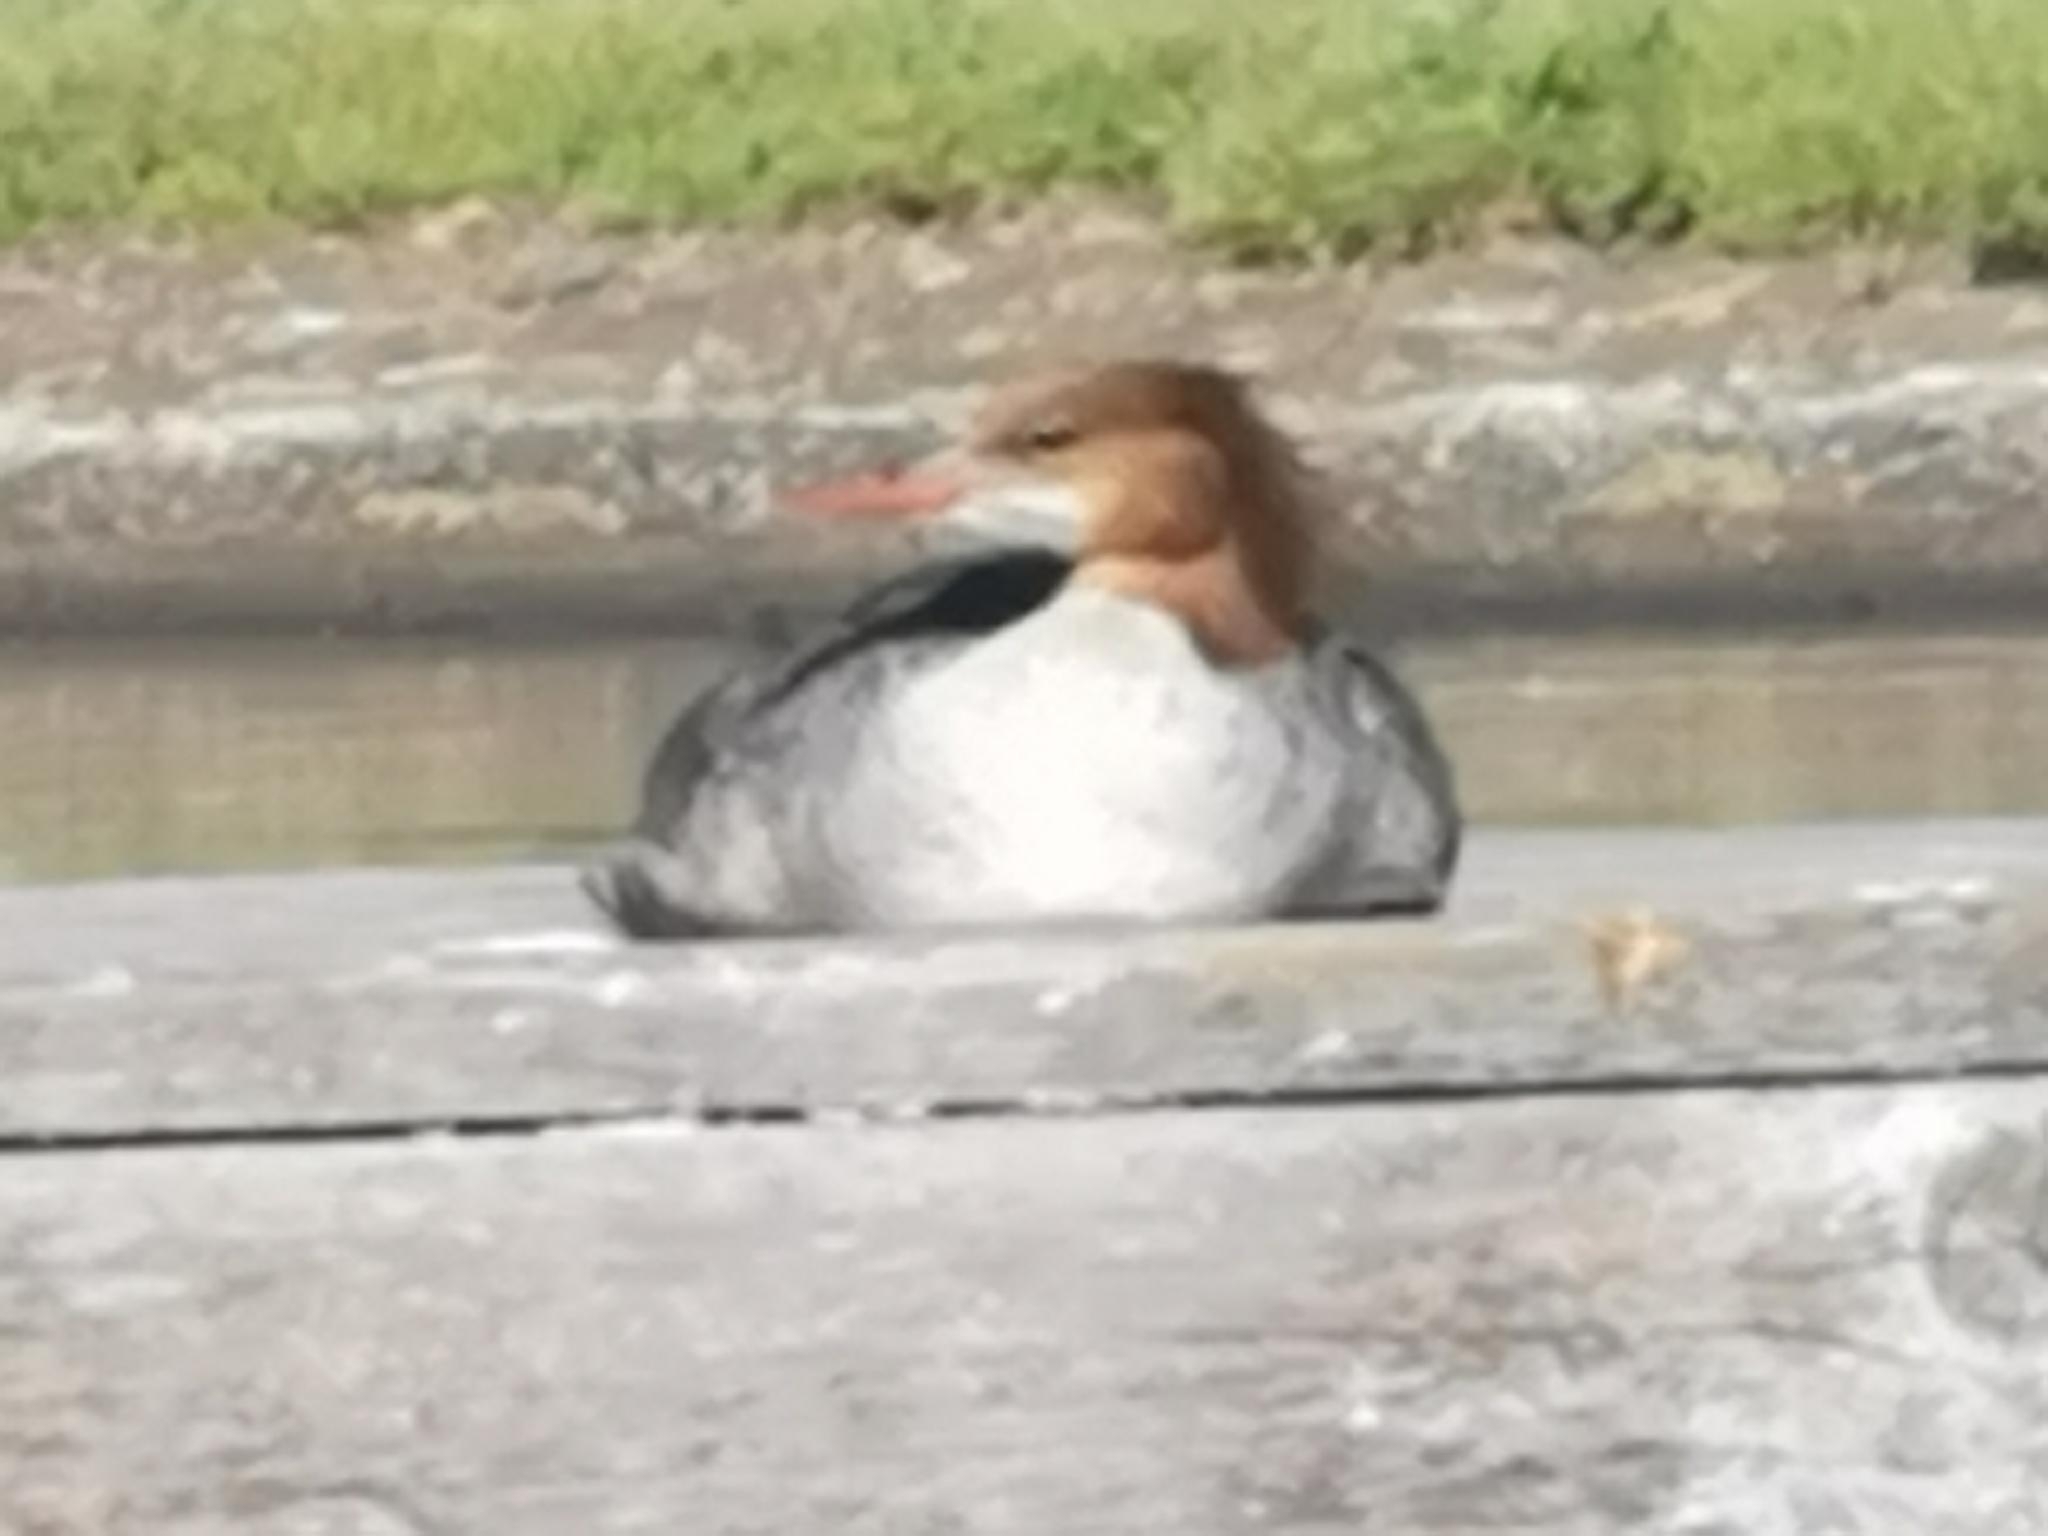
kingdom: Animalia
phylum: Chordata
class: Aves
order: Anseriformes
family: Anatidae
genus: Mergus
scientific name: Mergus merganser
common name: Common merganser
